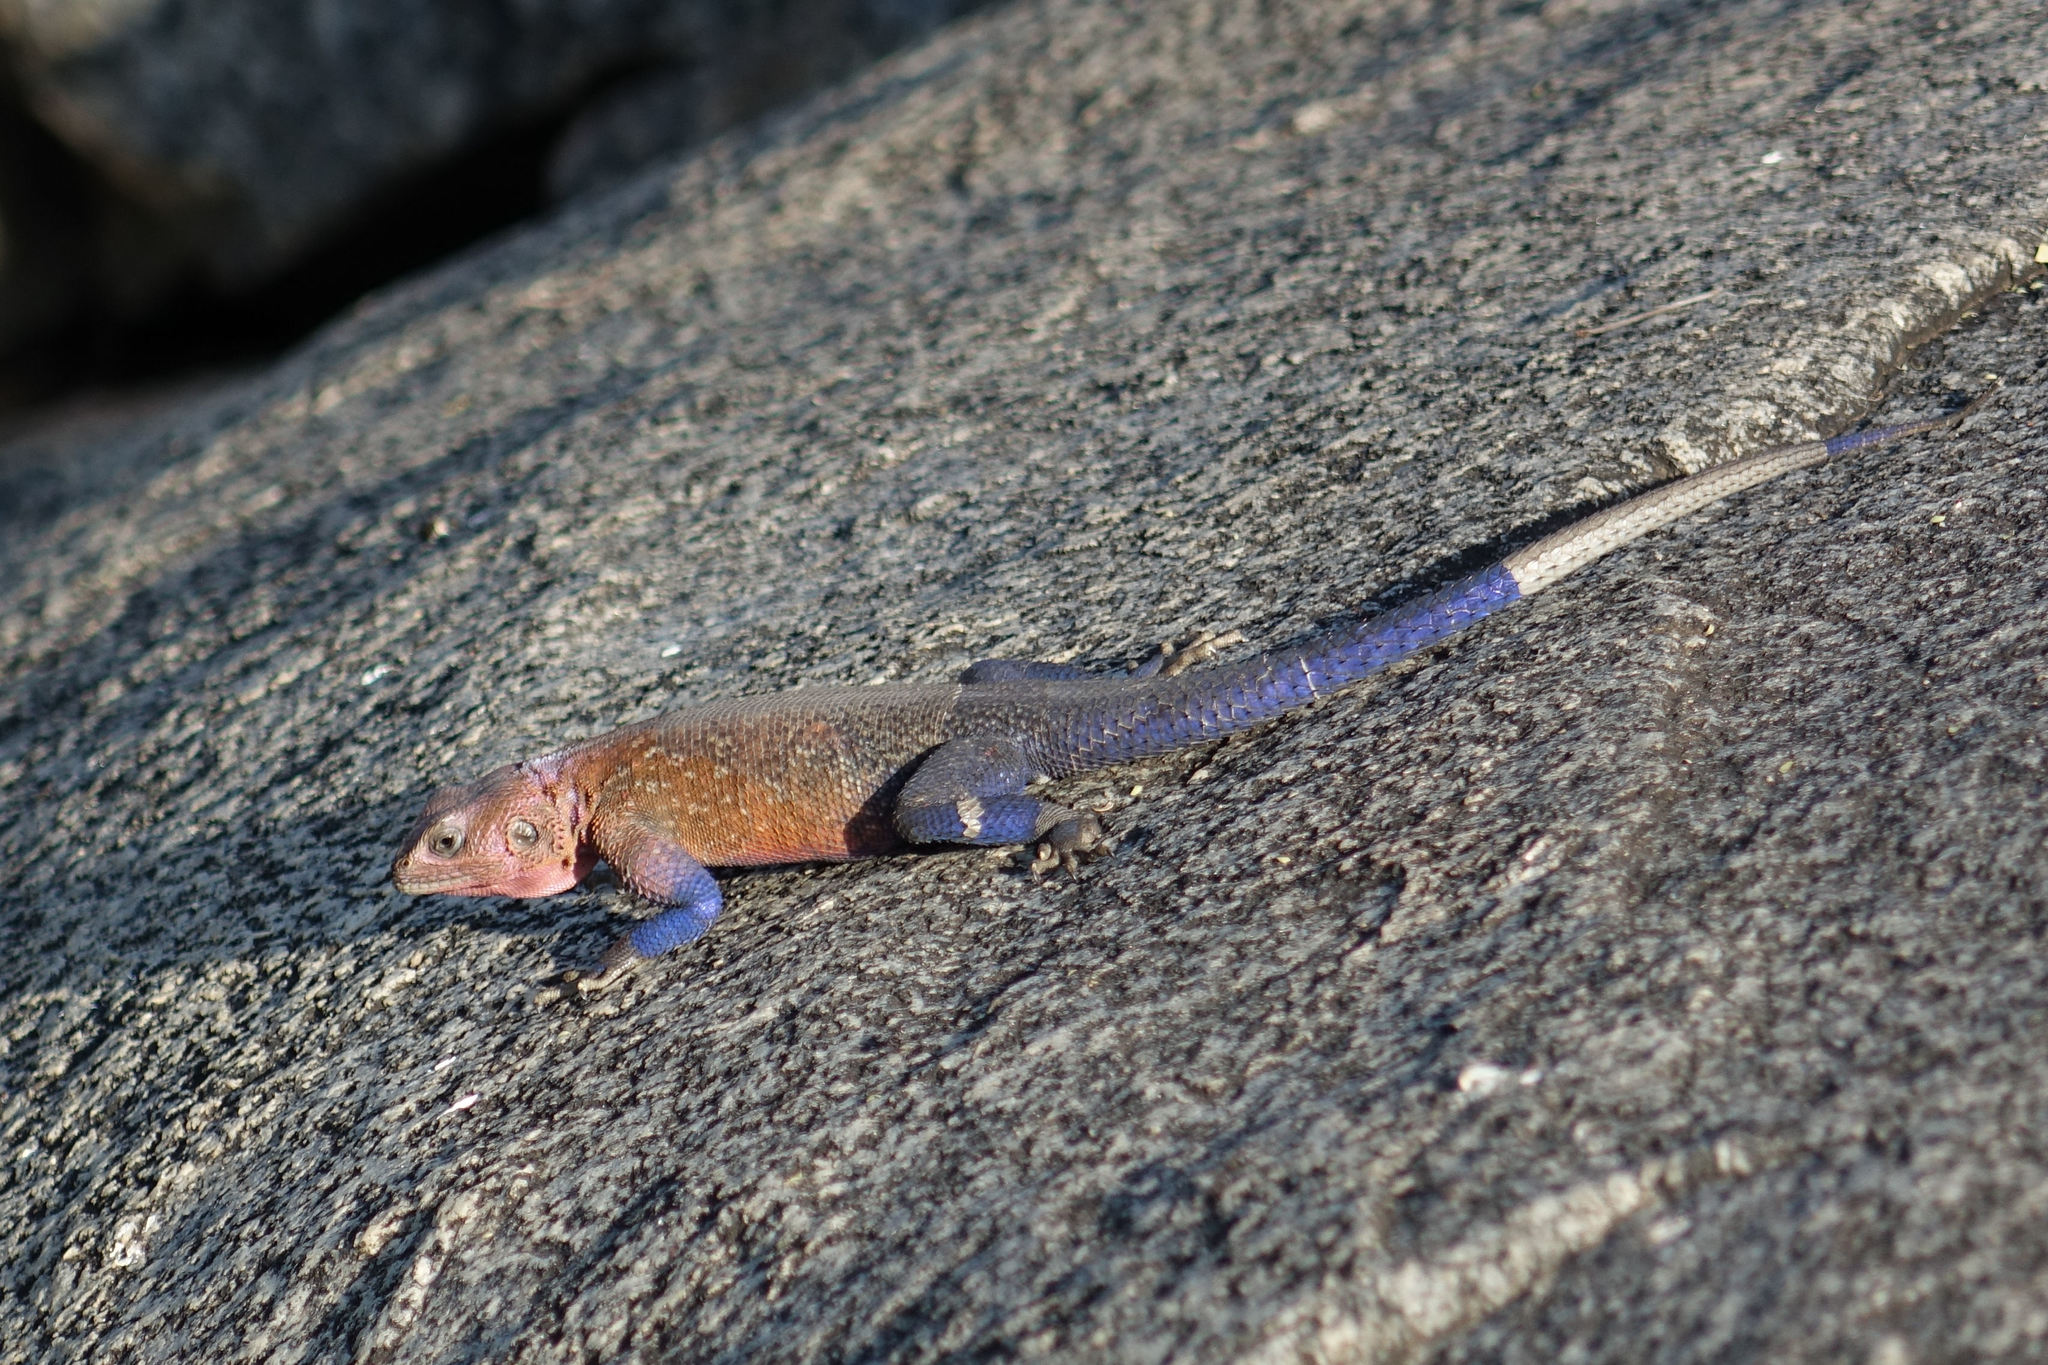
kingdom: Animalia
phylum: Chordata
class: Squamata
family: Agamidae
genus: Agama
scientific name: Agama mwanzae
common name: Mwanza flat-headed agama
